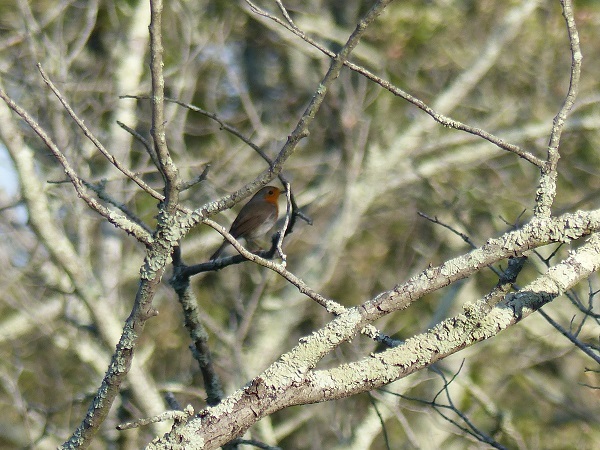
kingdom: Animalia
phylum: Chordata
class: Aves
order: Passeriformes
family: Muscicapidae
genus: Erithacus
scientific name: Erithacus rubecula
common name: European robin
